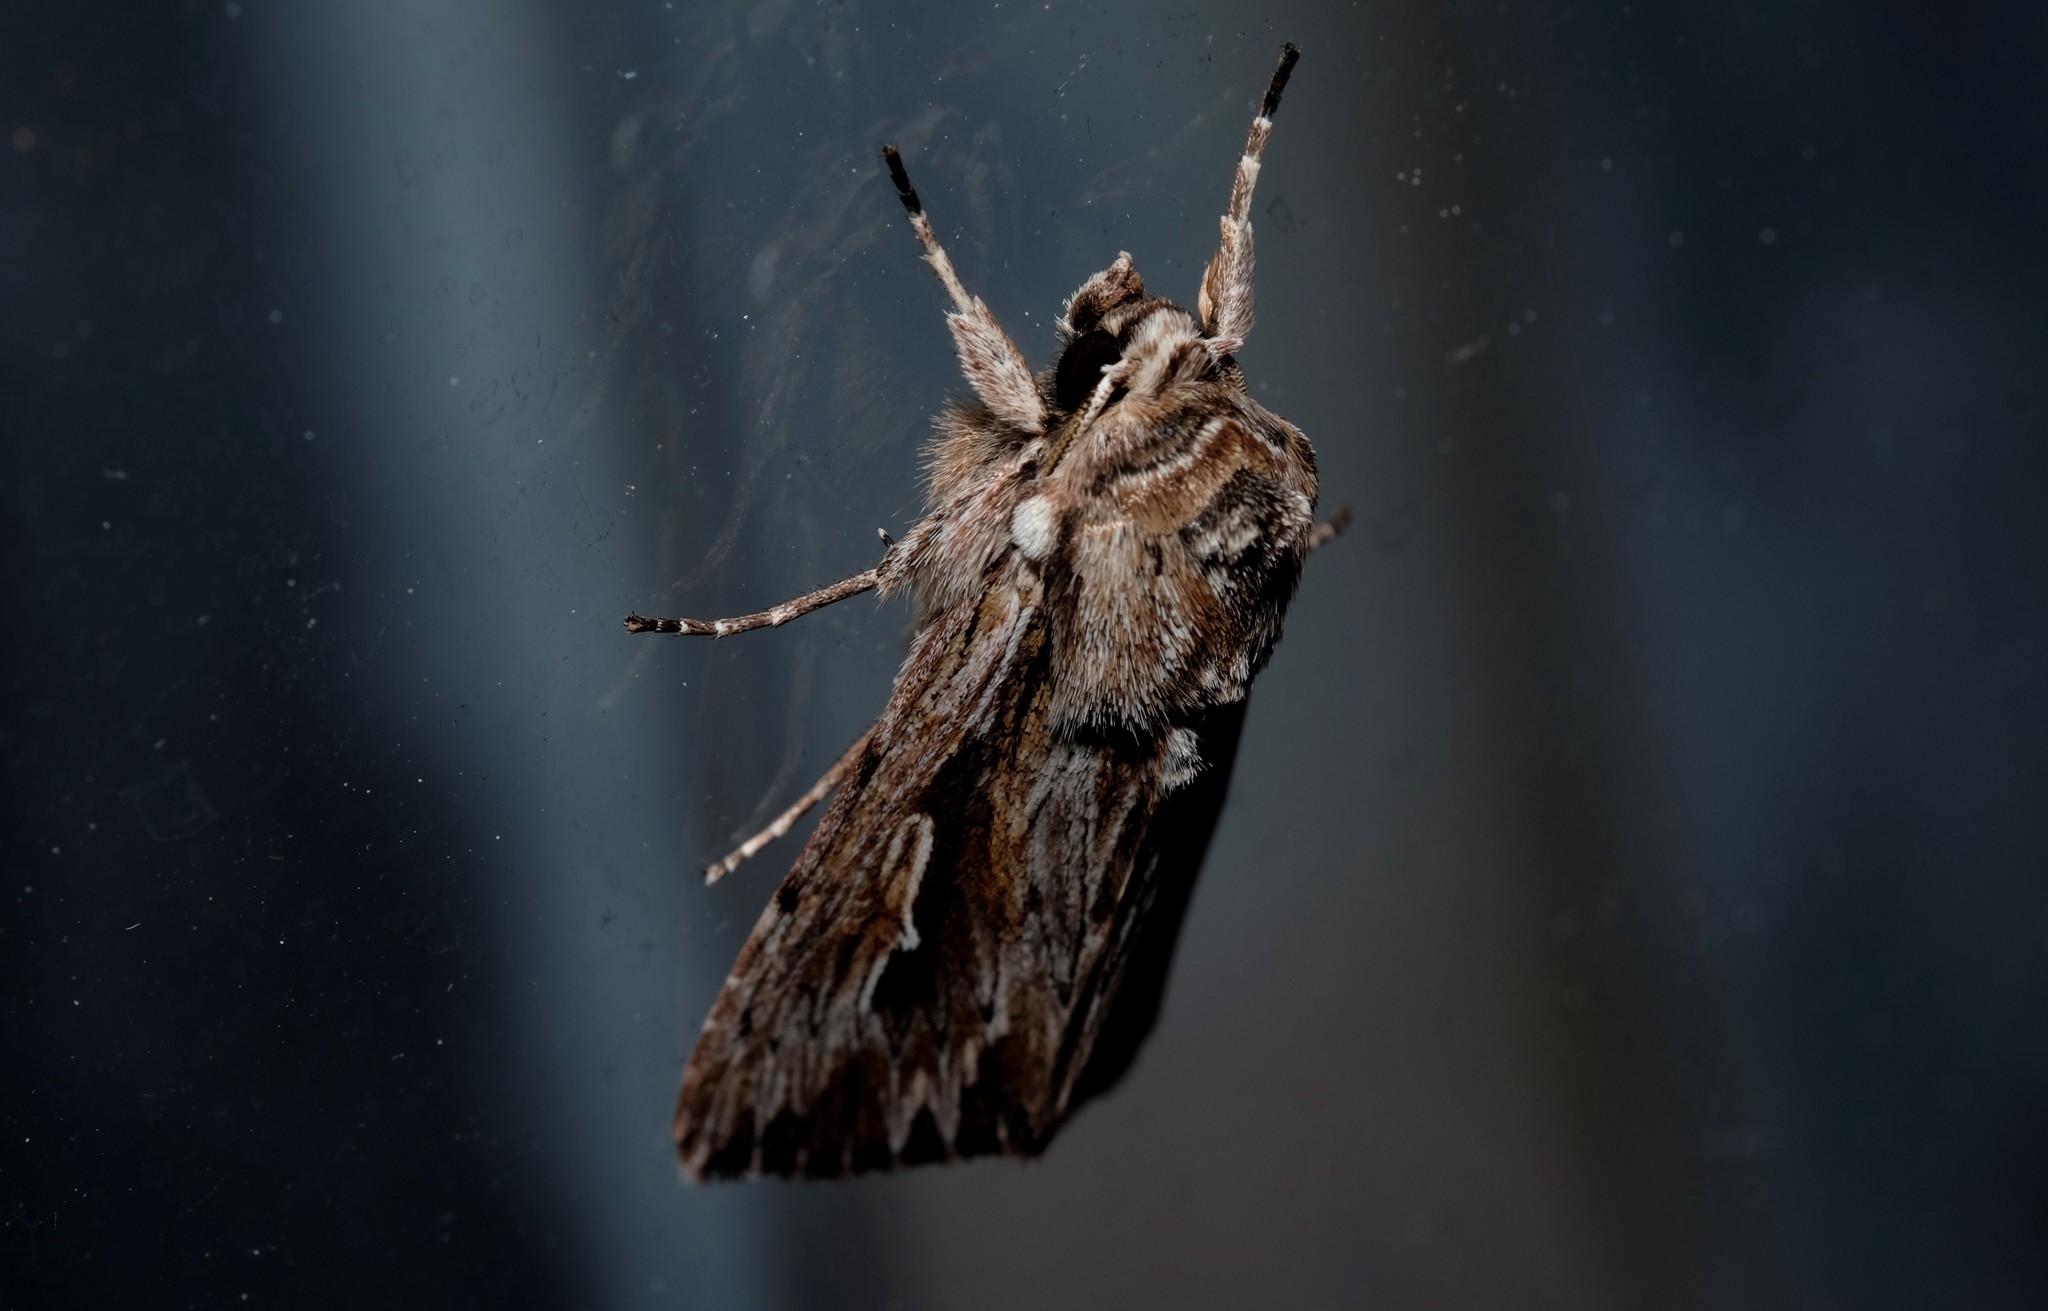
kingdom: Animalia
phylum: Arthropoda
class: Insecta
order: Lepidoptera
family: Noctuidae
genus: Persectania
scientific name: Persectania ewingii
